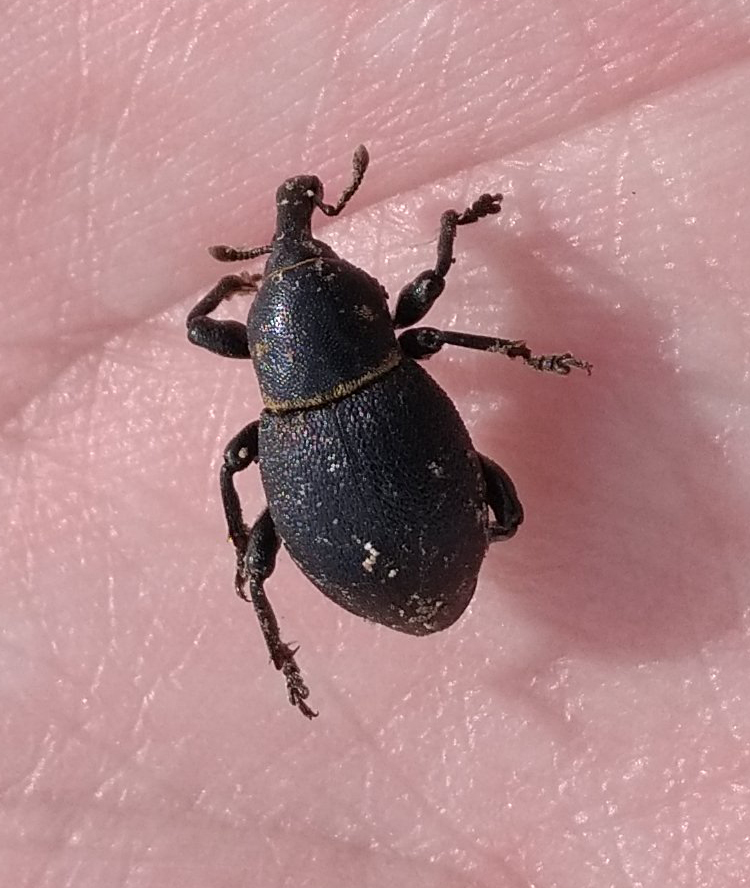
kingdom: Animalia
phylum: Arthropoda
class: Insecta
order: Coleoptera
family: Curculionidae
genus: Liparus
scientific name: Liparus coronatus
